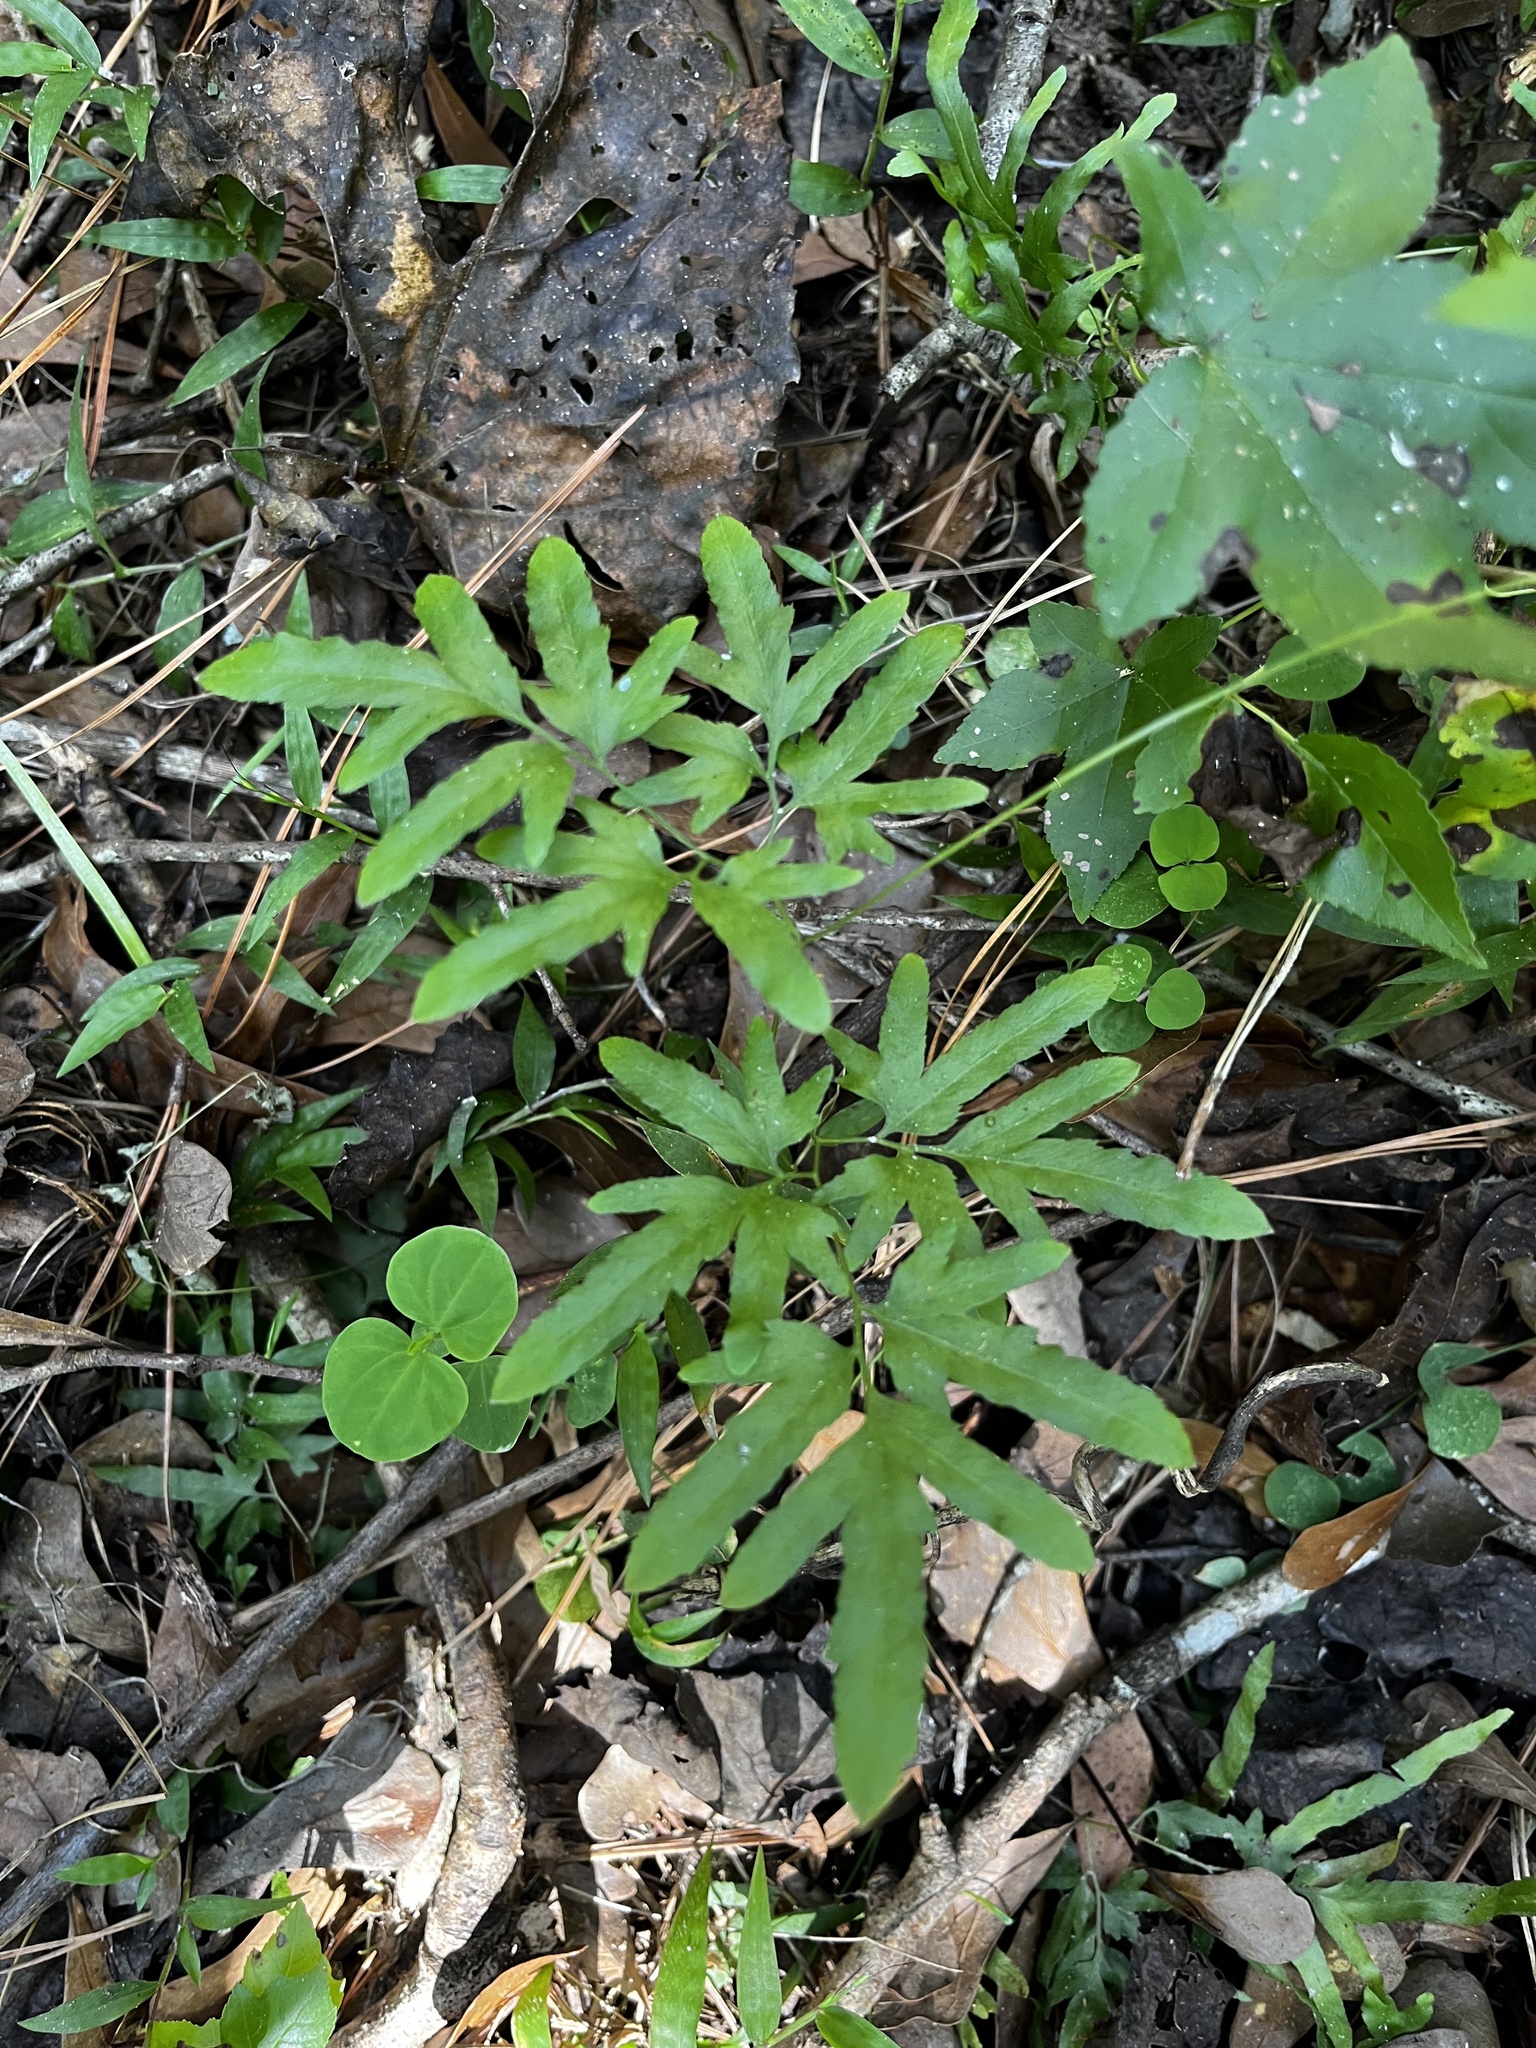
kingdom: Plantae
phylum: Tracheophyta
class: Polypodiopsida
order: Schizaeales
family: Lygodiaceae
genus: Lygodium
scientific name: Lygodium japonicum
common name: Japanese climbing fern
